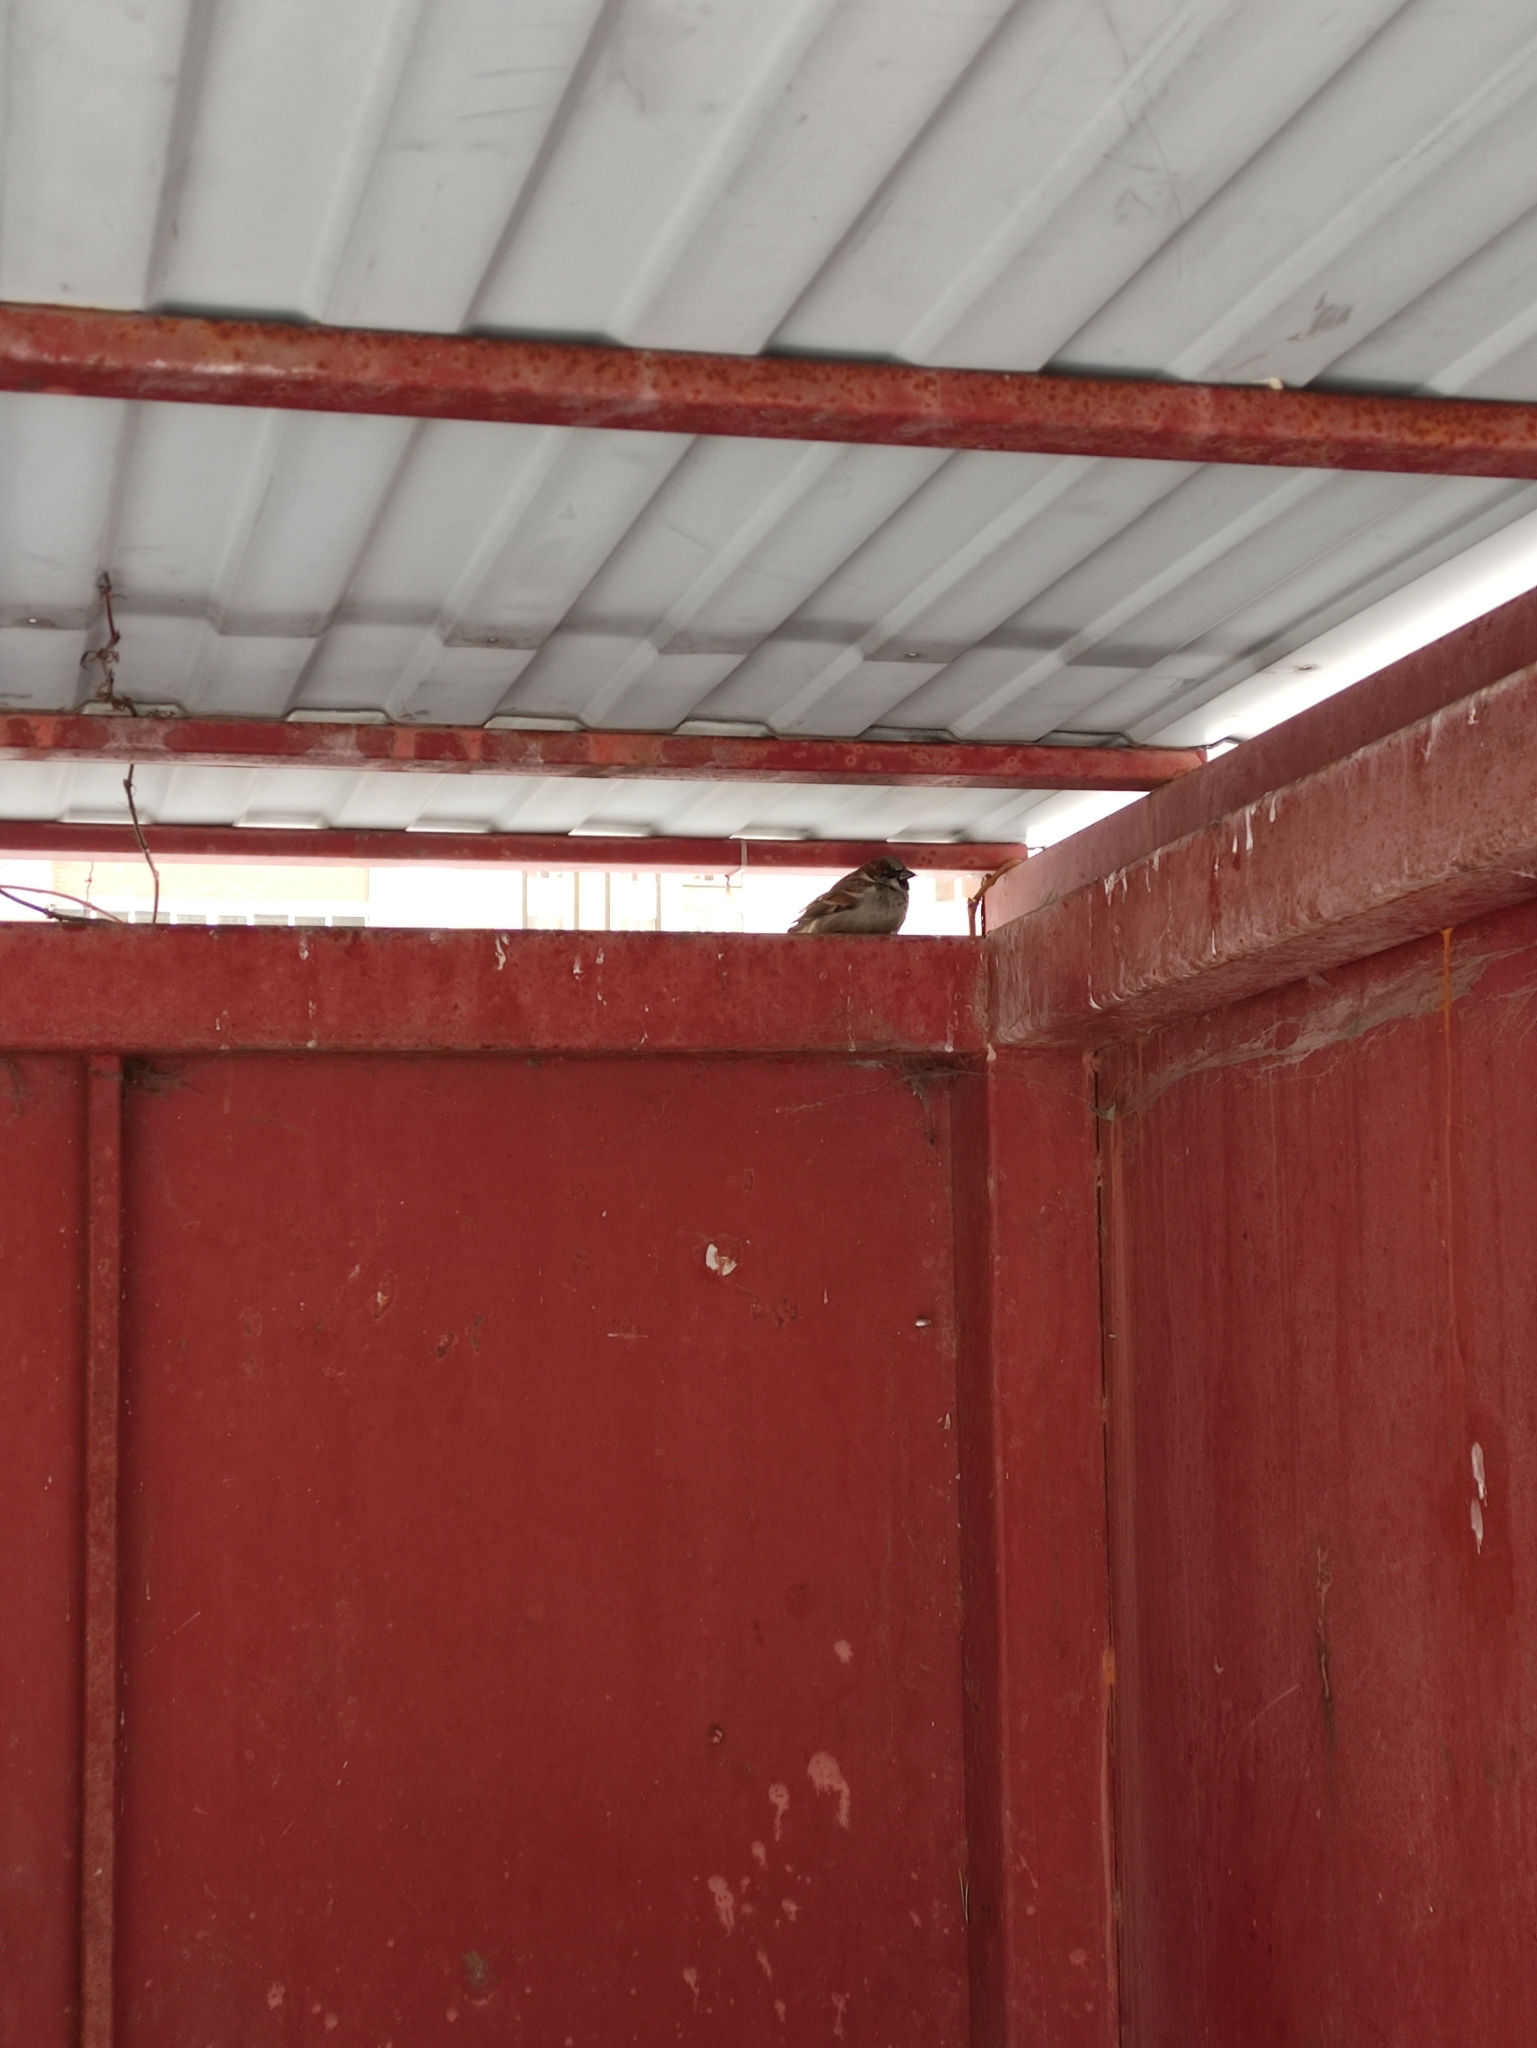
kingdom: Animalia
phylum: Chordata
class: Aves
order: Passeriformes
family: Passeridae
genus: Passer
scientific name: Passer domesticus
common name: House sparrow
